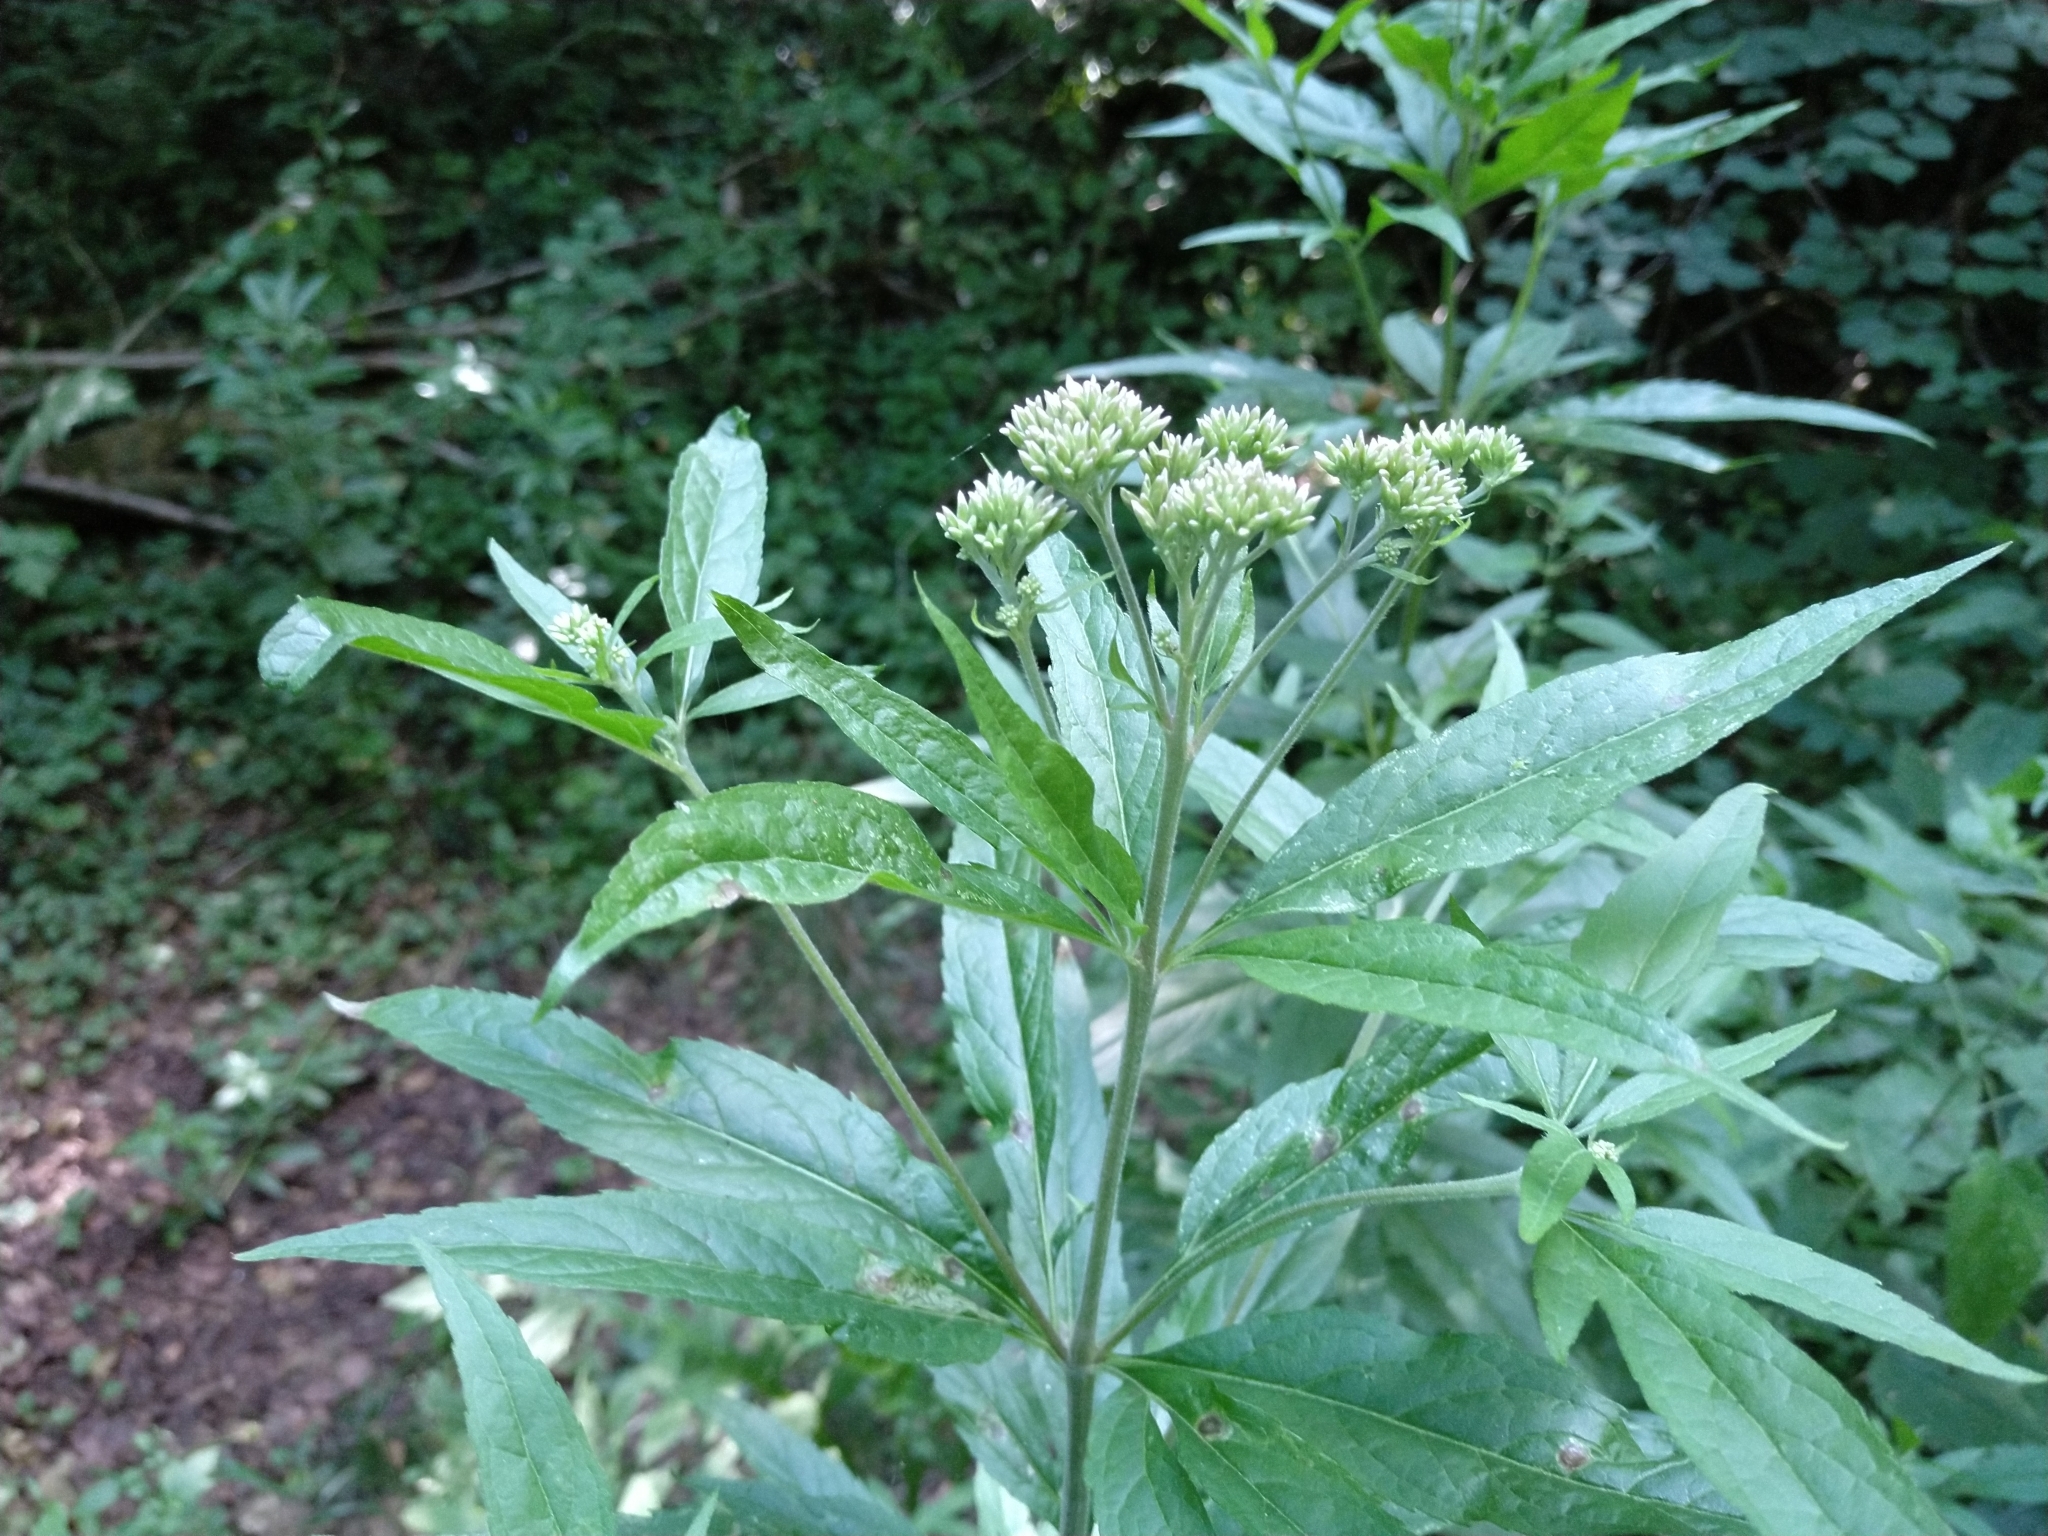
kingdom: Plantae
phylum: Tracheophyta
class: Magnoliopsida
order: Asterales
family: Asteraceae
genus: Eupatorium
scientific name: Eupatorium cannabinum
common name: Hemp-agrimony
